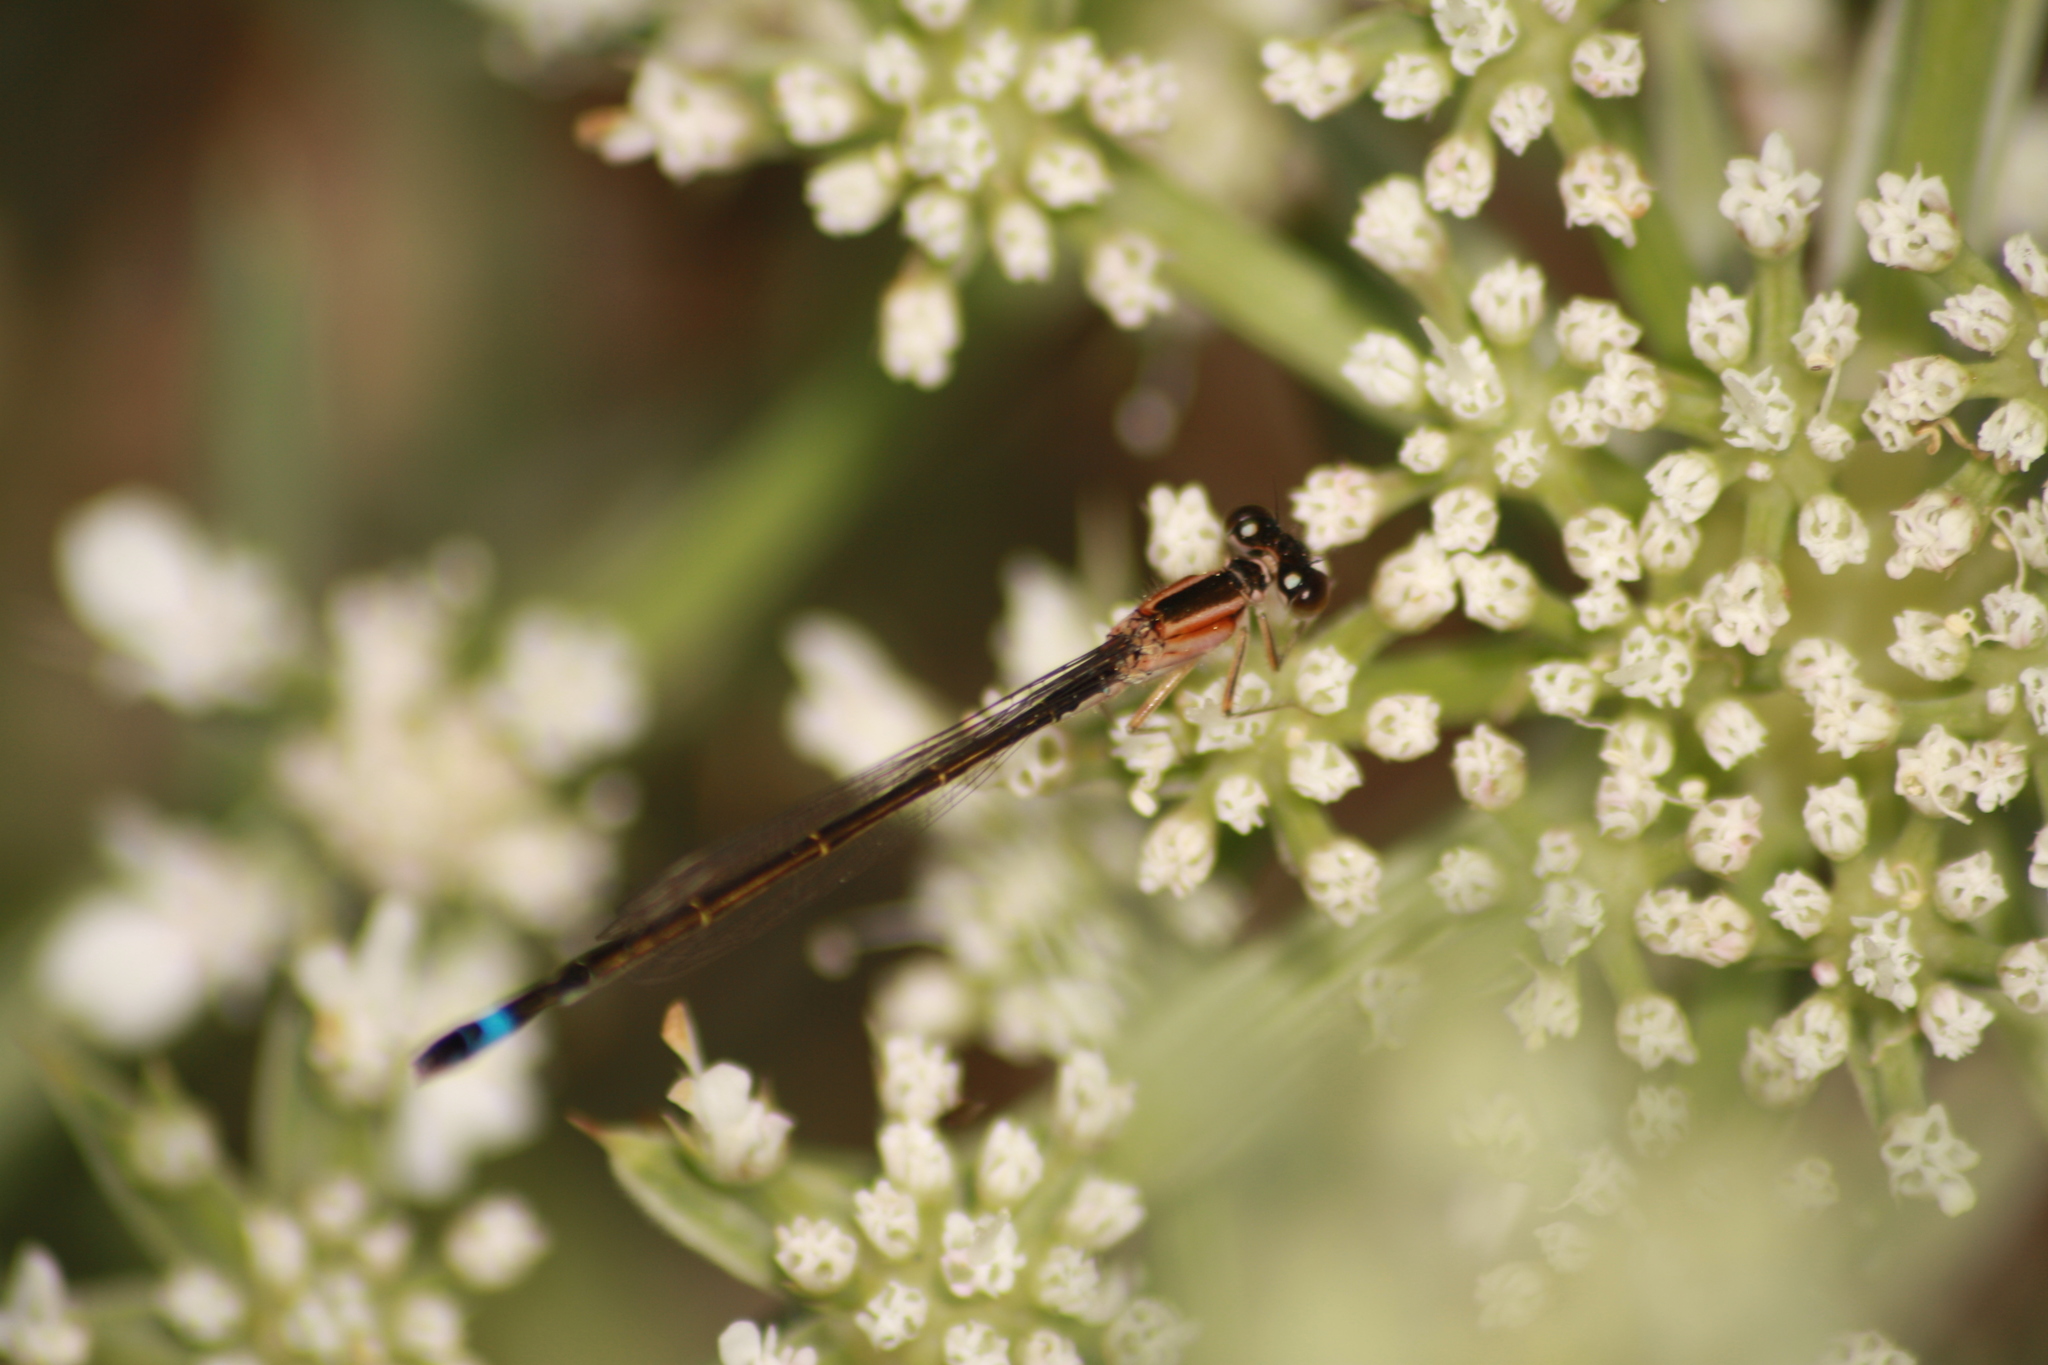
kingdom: Animalia
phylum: Arthropoda
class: Insecta
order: Odonata
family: Coenagrionidae
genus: Ischnura
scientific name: Ischnura elegans
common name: Blue-tailed damselfly
